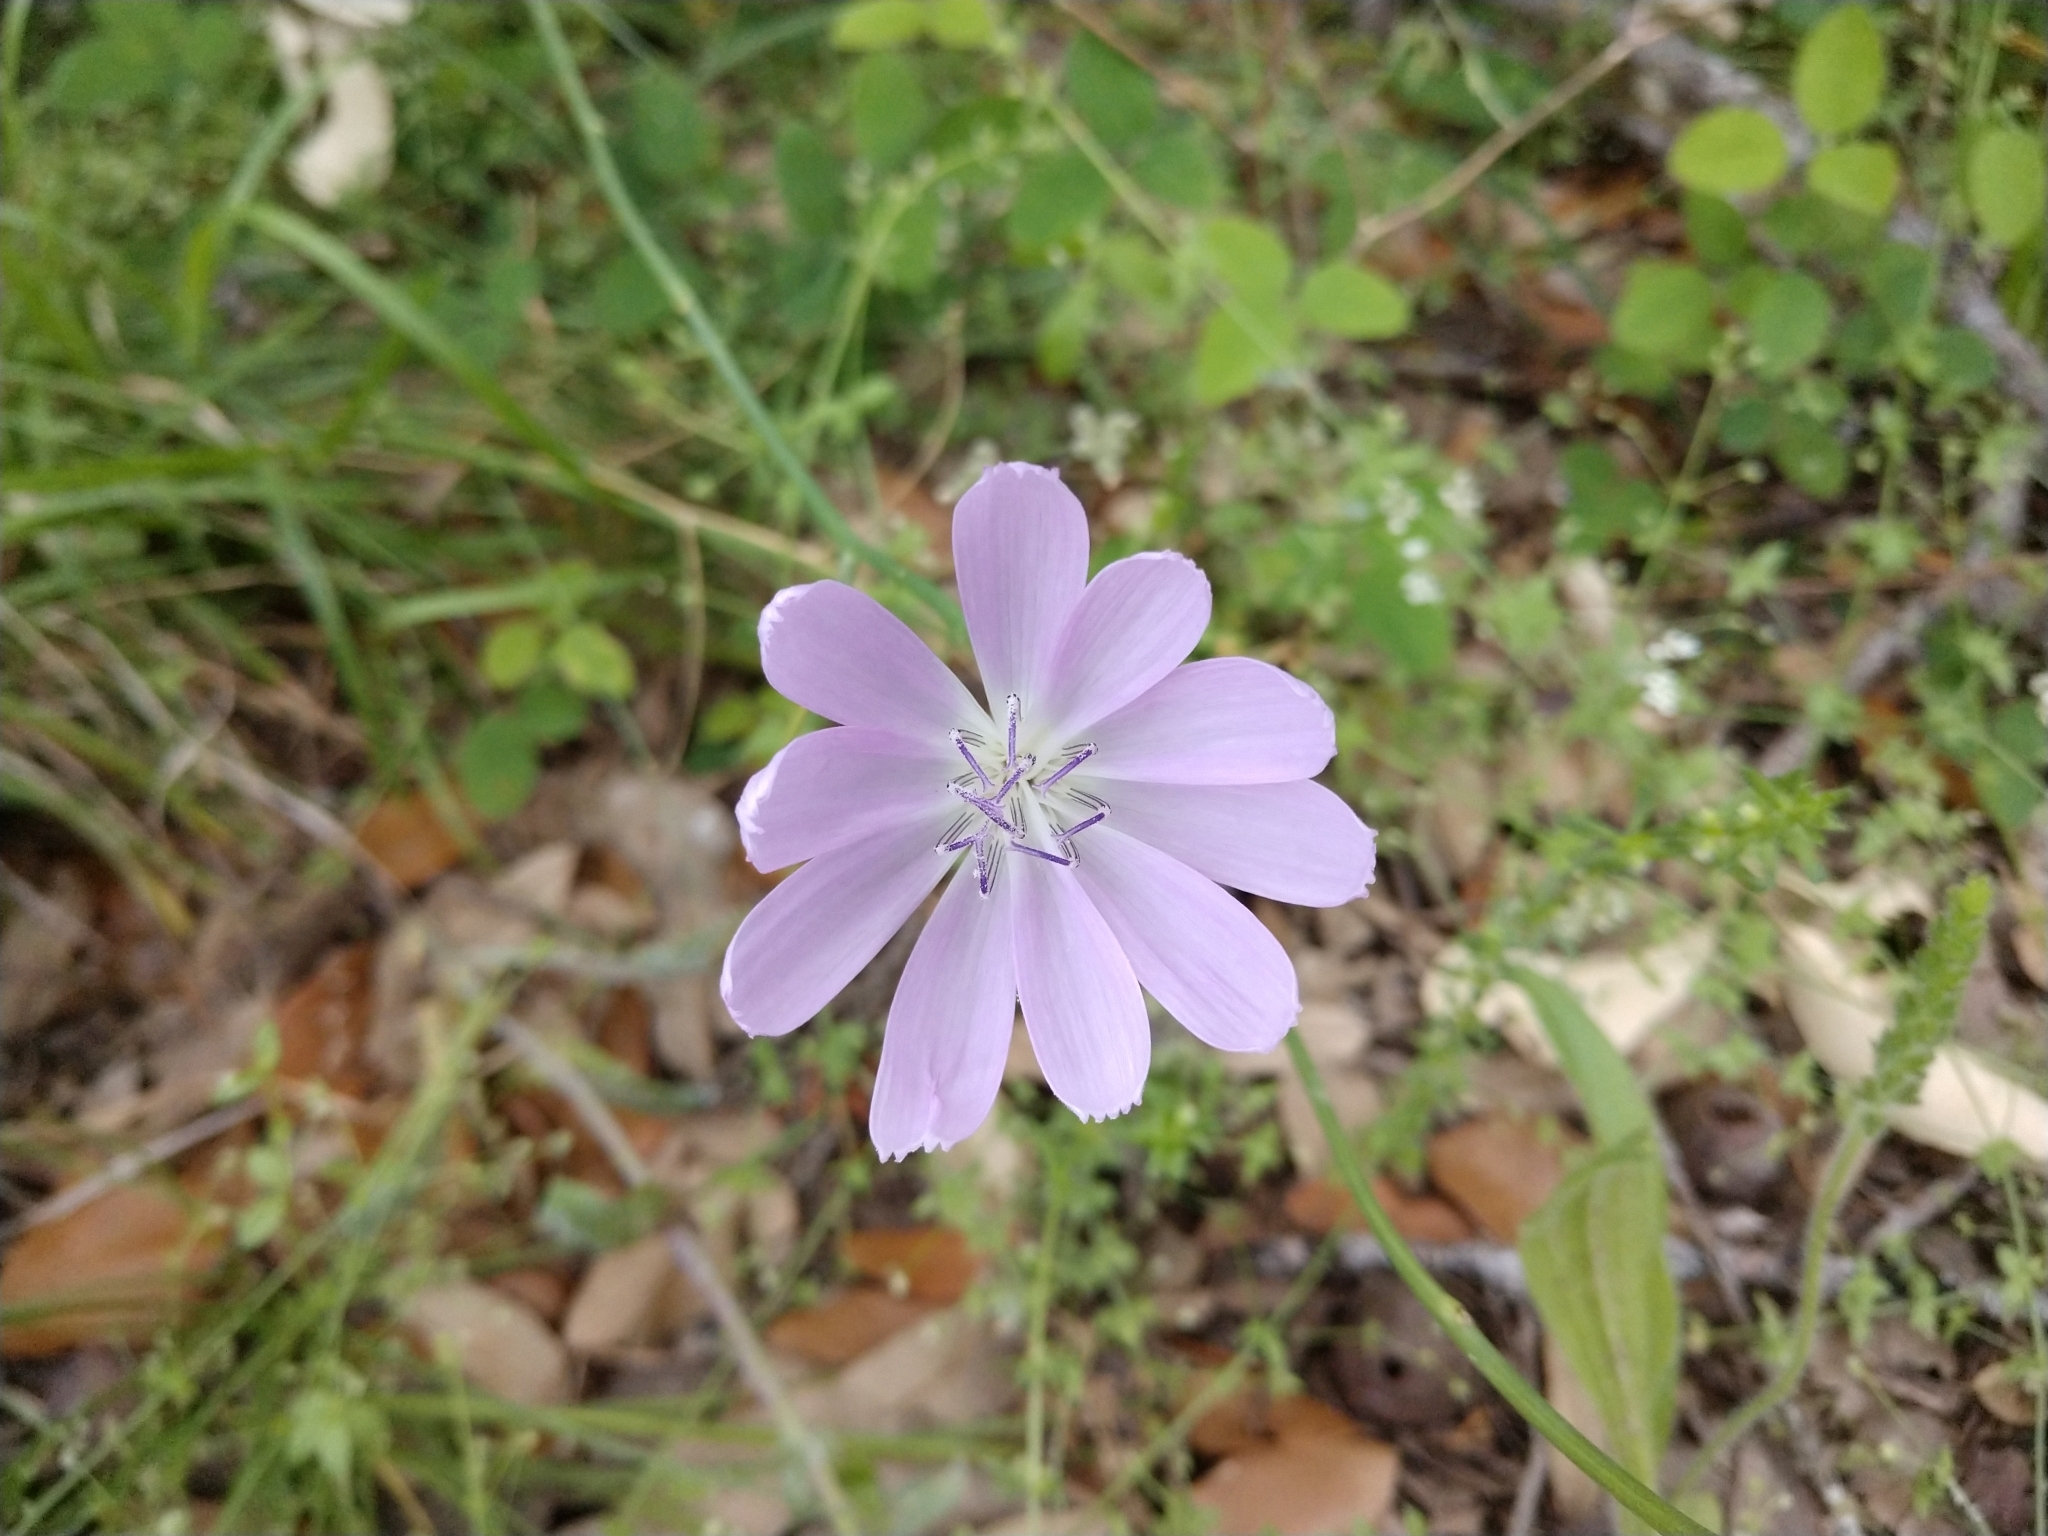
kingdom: Plantae
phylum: Tracheophyta
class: Magnoliopsida
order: Asterales
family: Asteraceae
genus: Lygodesmia
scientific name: Lygodesmia texana
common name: Texas skeleton-plant
